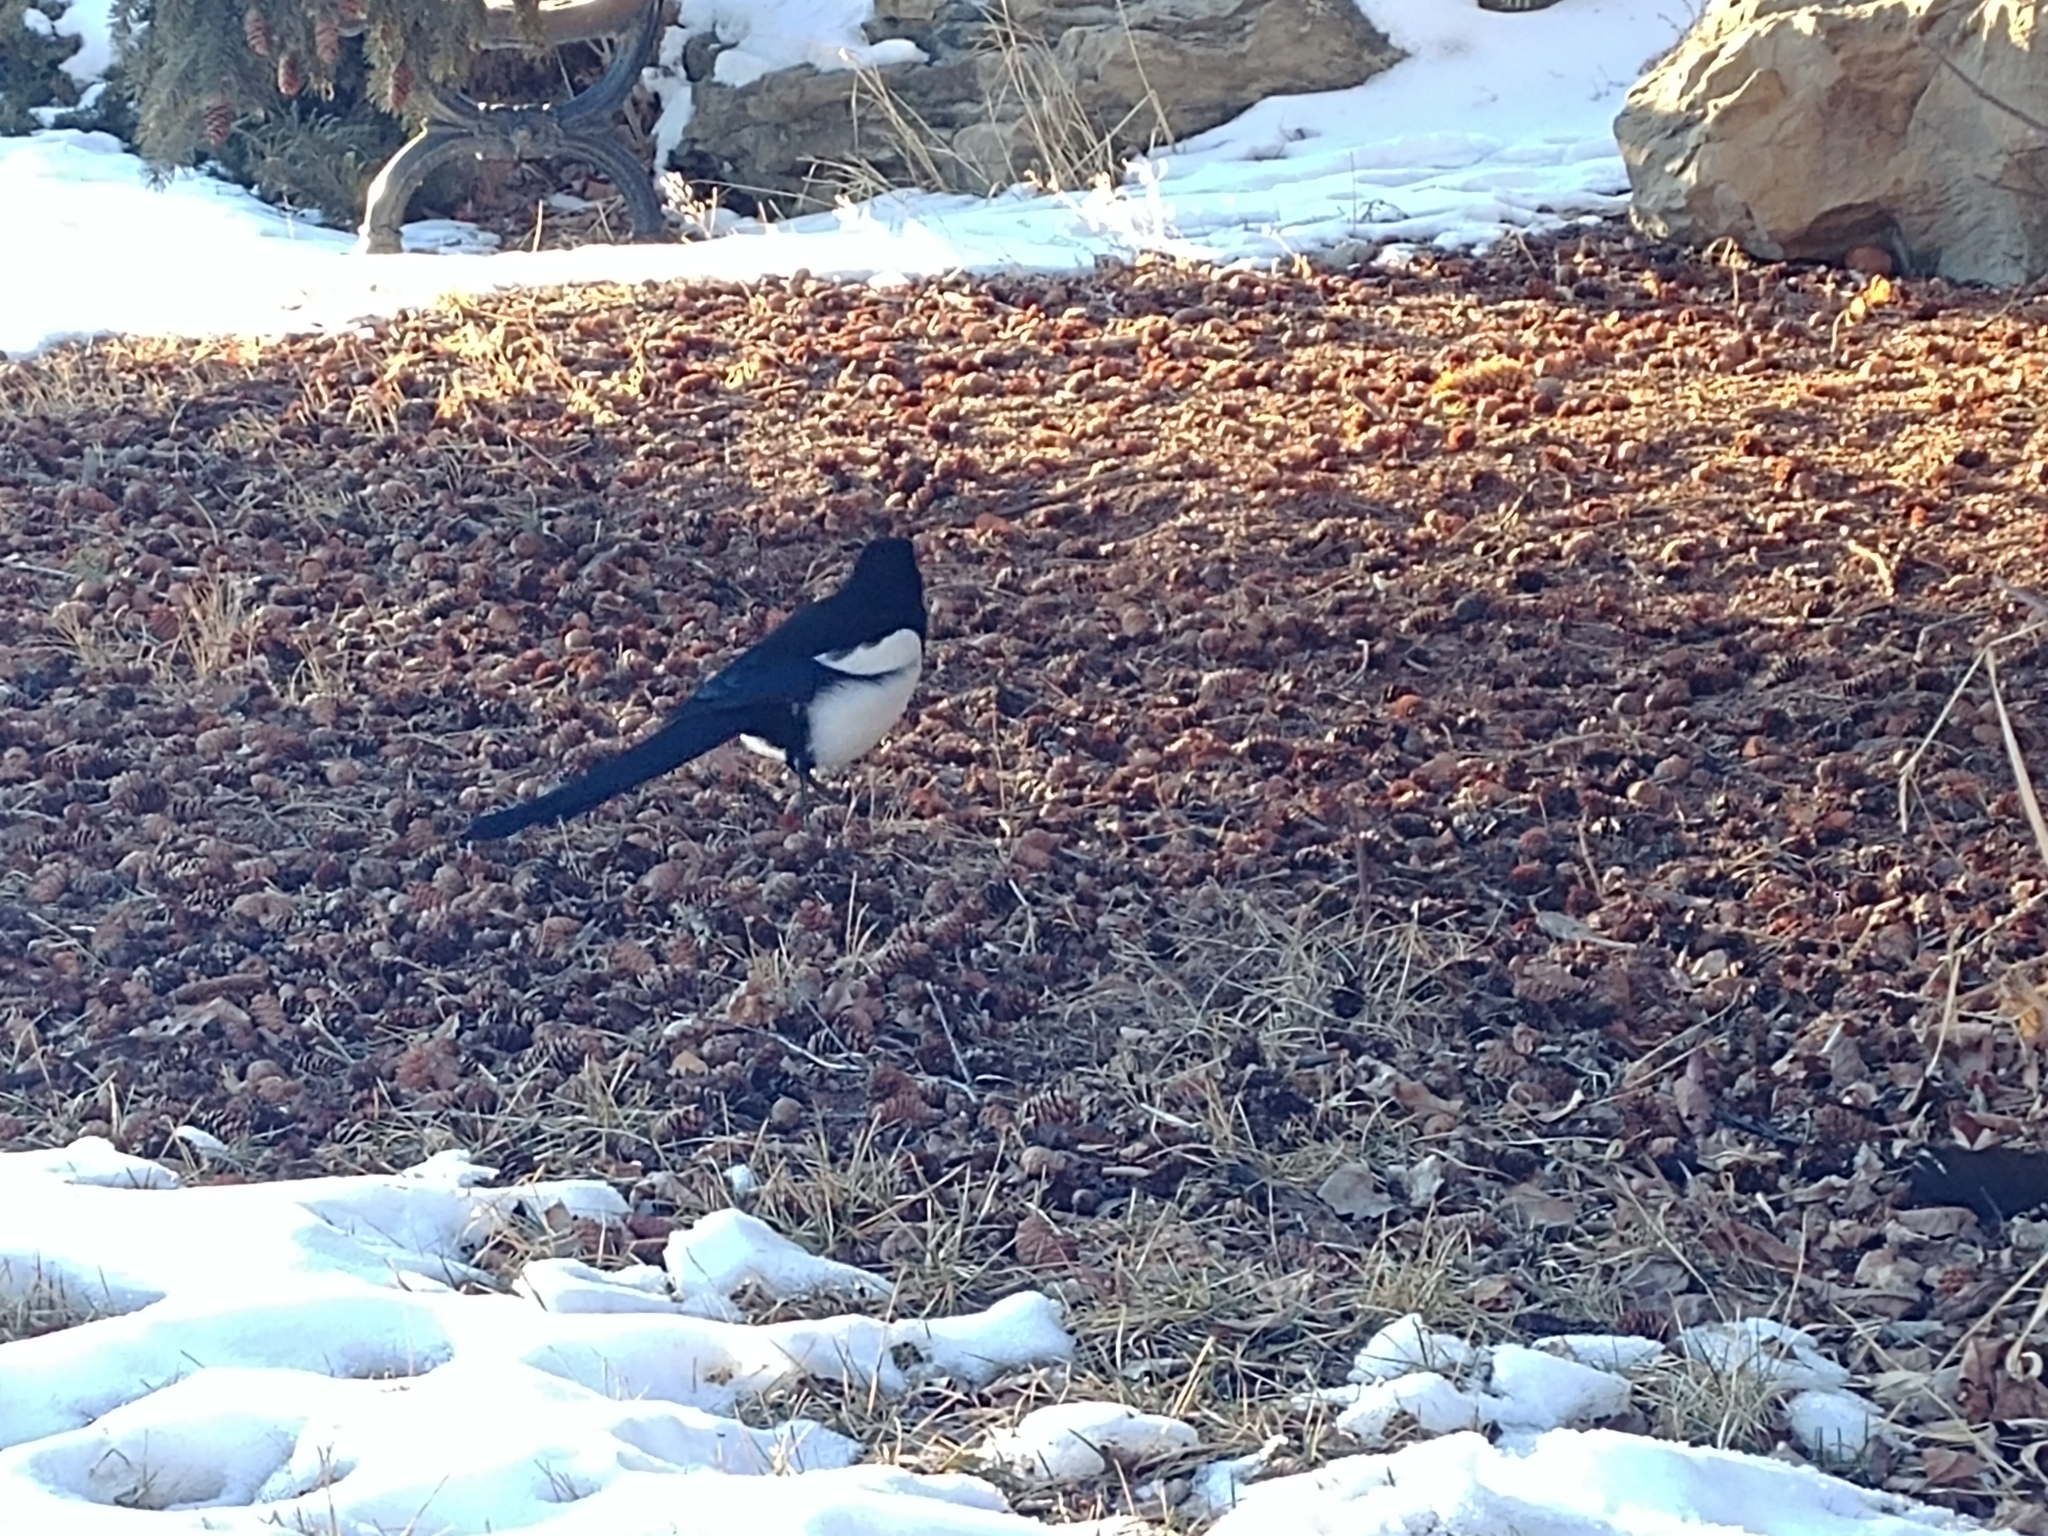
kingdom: Animalia
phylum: Chordata
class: Aves
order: Passeriformes
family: Corvidae
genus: Pica
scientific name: Pica hudsonia
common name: Black-billed magpie
